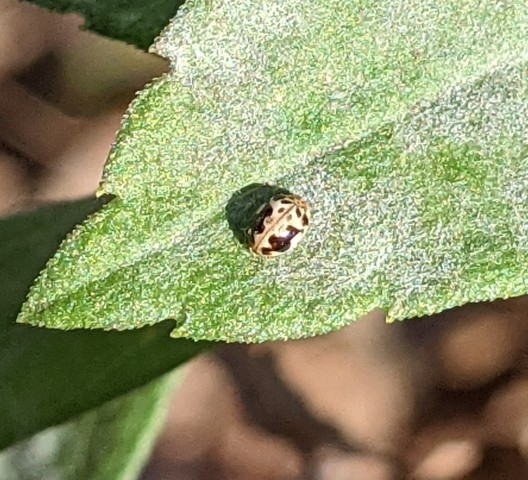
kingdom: Animalia
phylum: Arthropoda
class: Insecta
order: Coleoptera
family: Coccinellidae
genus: Psyllobora
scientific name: Psyllobora renifer
